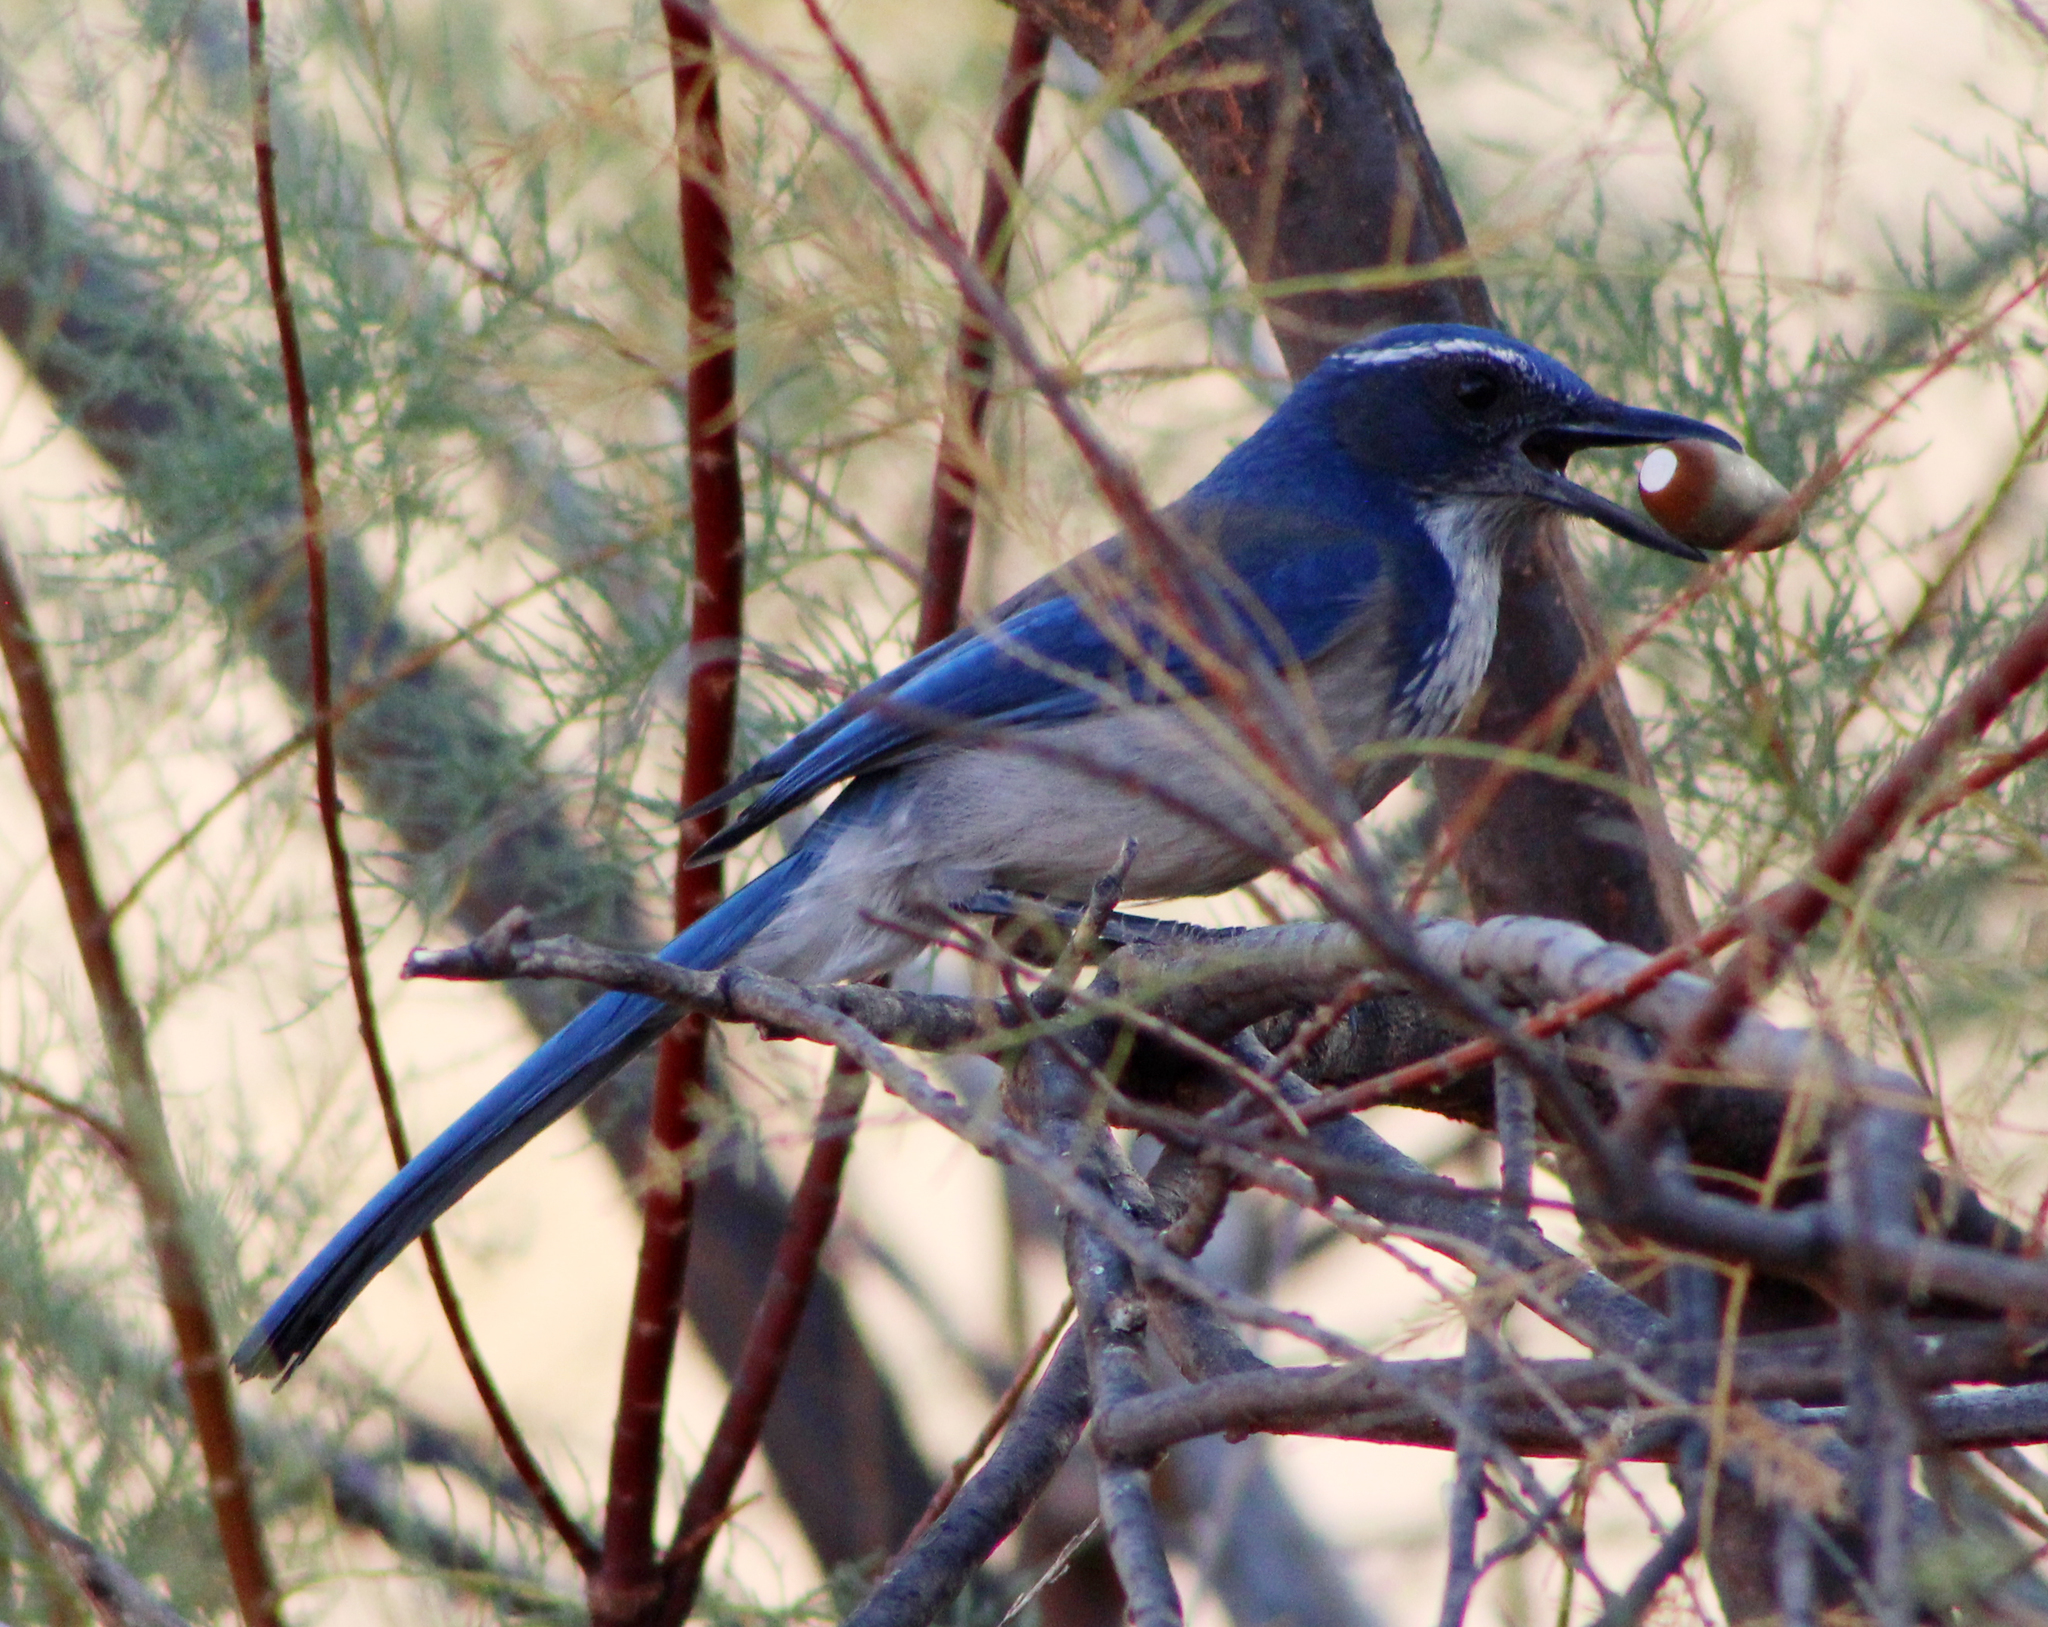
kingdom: Animalia
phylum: Chordata
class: Aves
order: Passeriformes
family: Corvidae
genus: Aphelocoma
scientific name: Aphelocoma californica
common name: California scrub-jay
